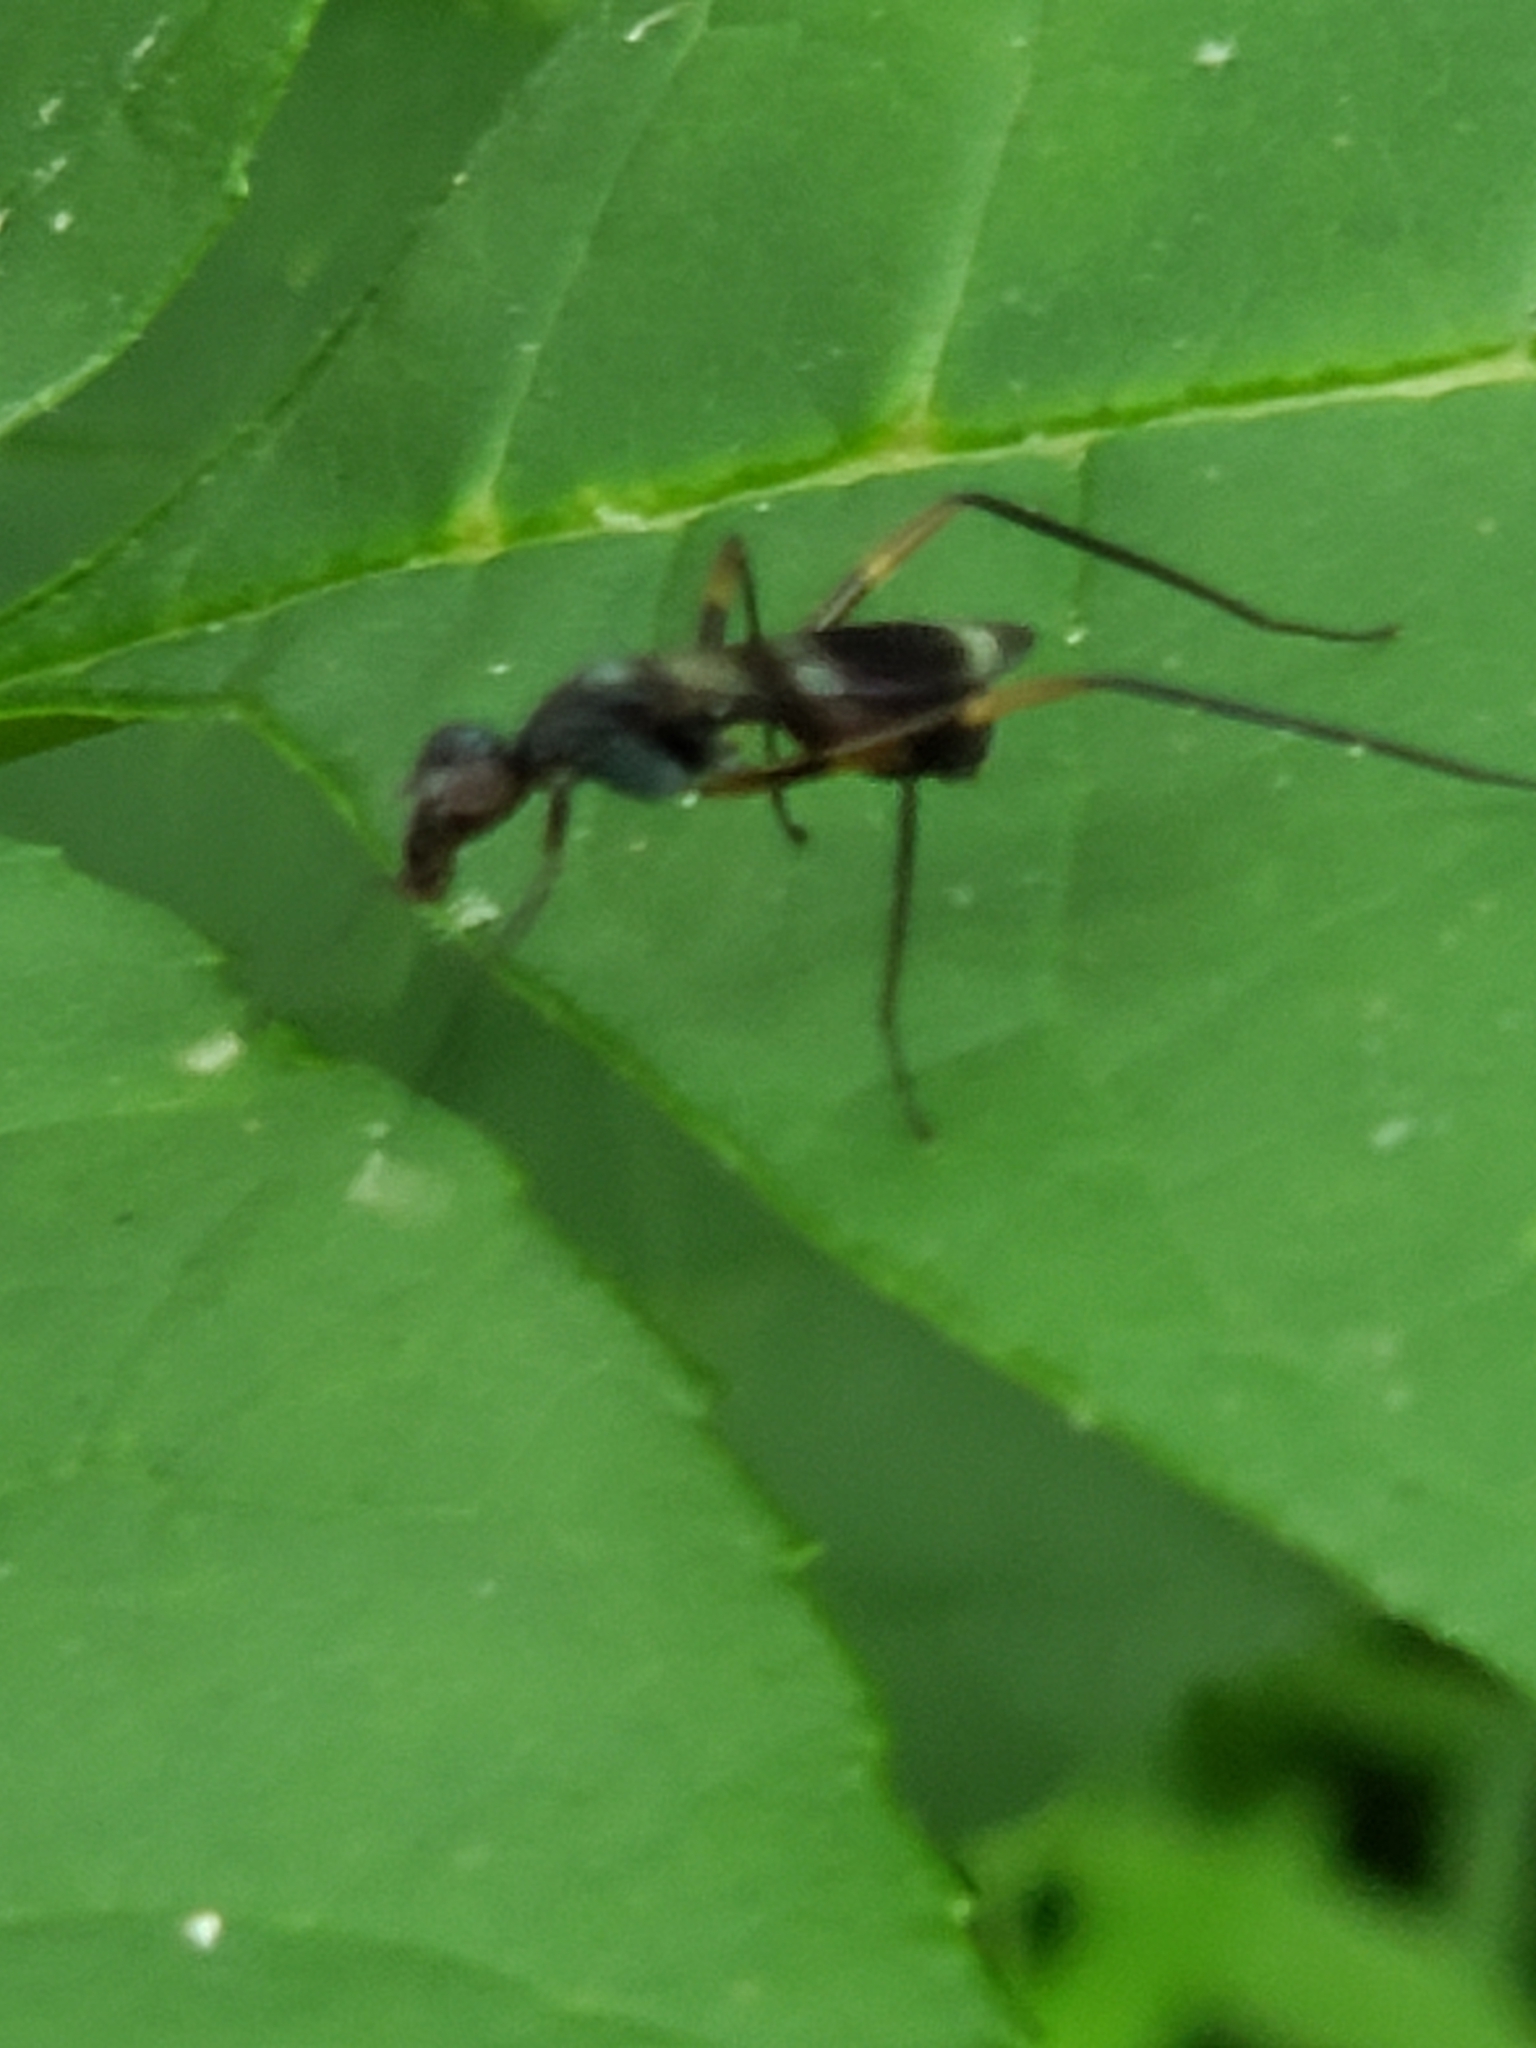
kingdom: Animalia
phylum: Arthropoda
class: Insecta
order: Diptera
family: Micropezidae
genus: Taeniaptera
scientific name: Taeniaptera trivittata
